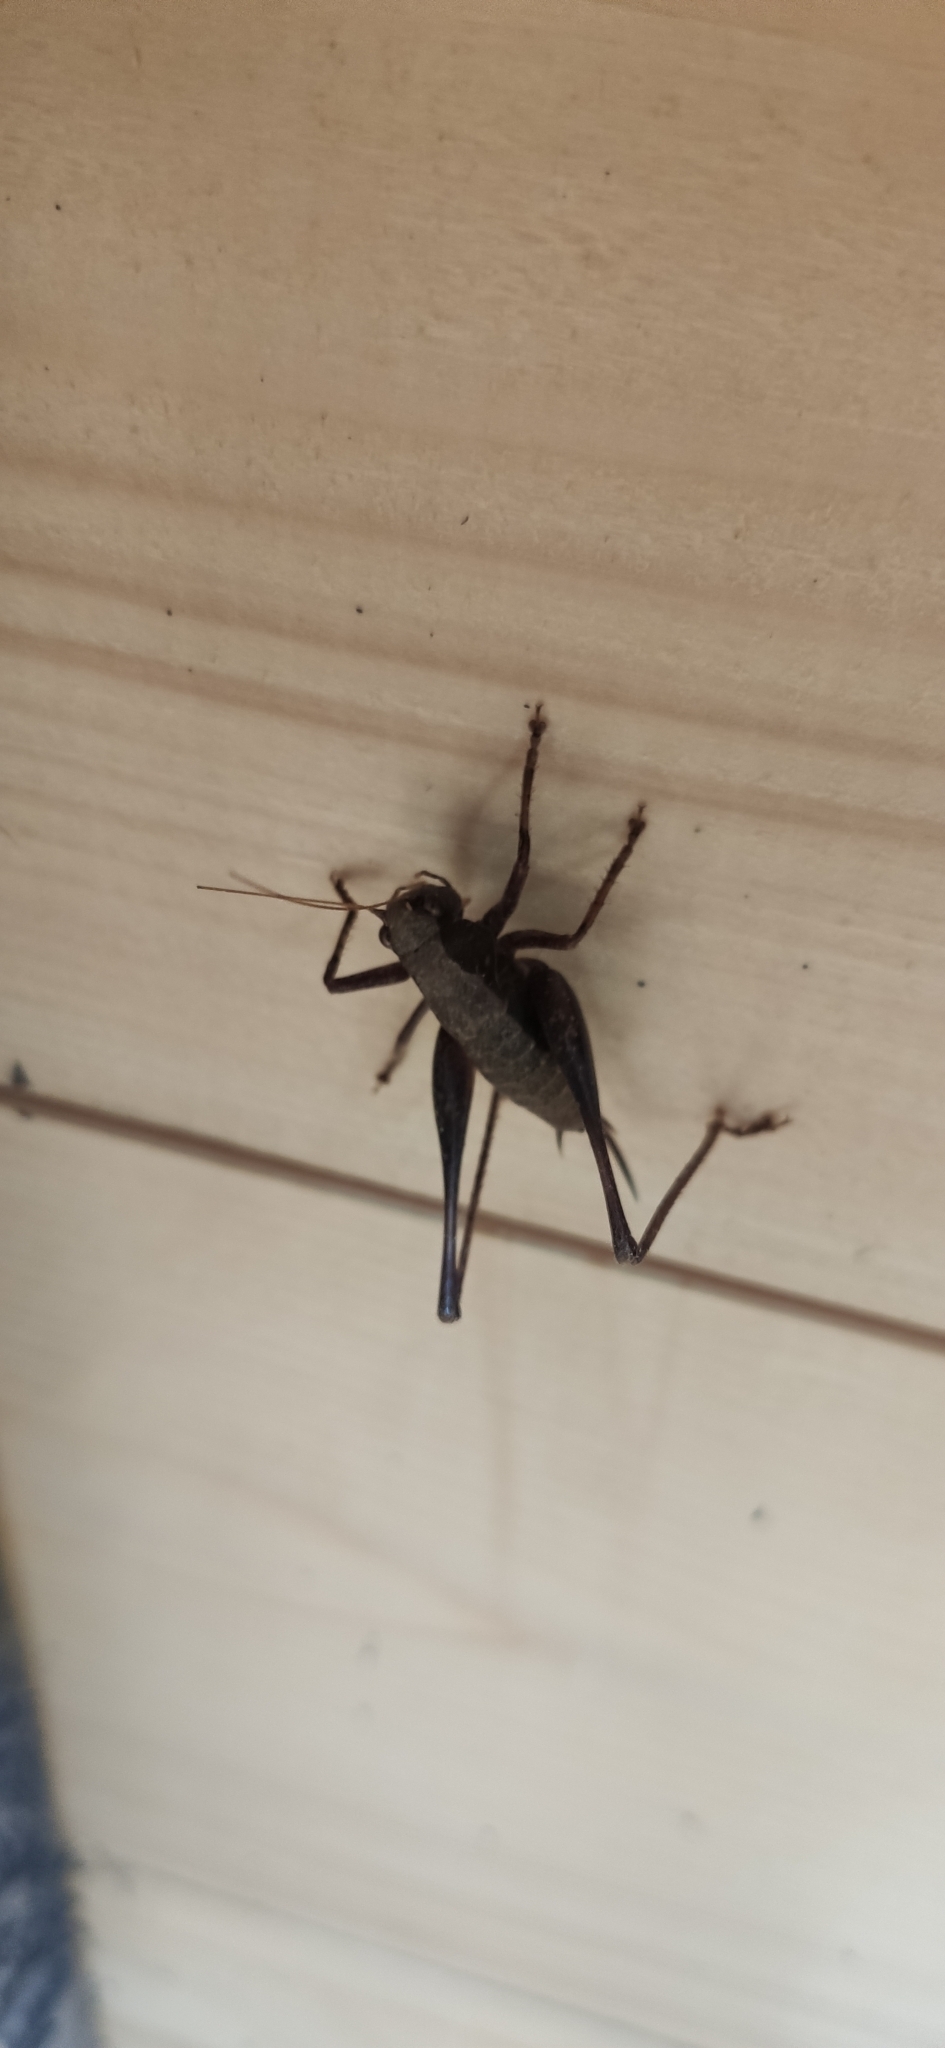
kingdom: Animalia
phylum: Arthropoda
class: Insecta
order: Orthoptera
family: Tettigoniidae
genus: Pholidoptera
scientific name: Pholidoptera griseoaptera
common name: Dark bush-cricket
